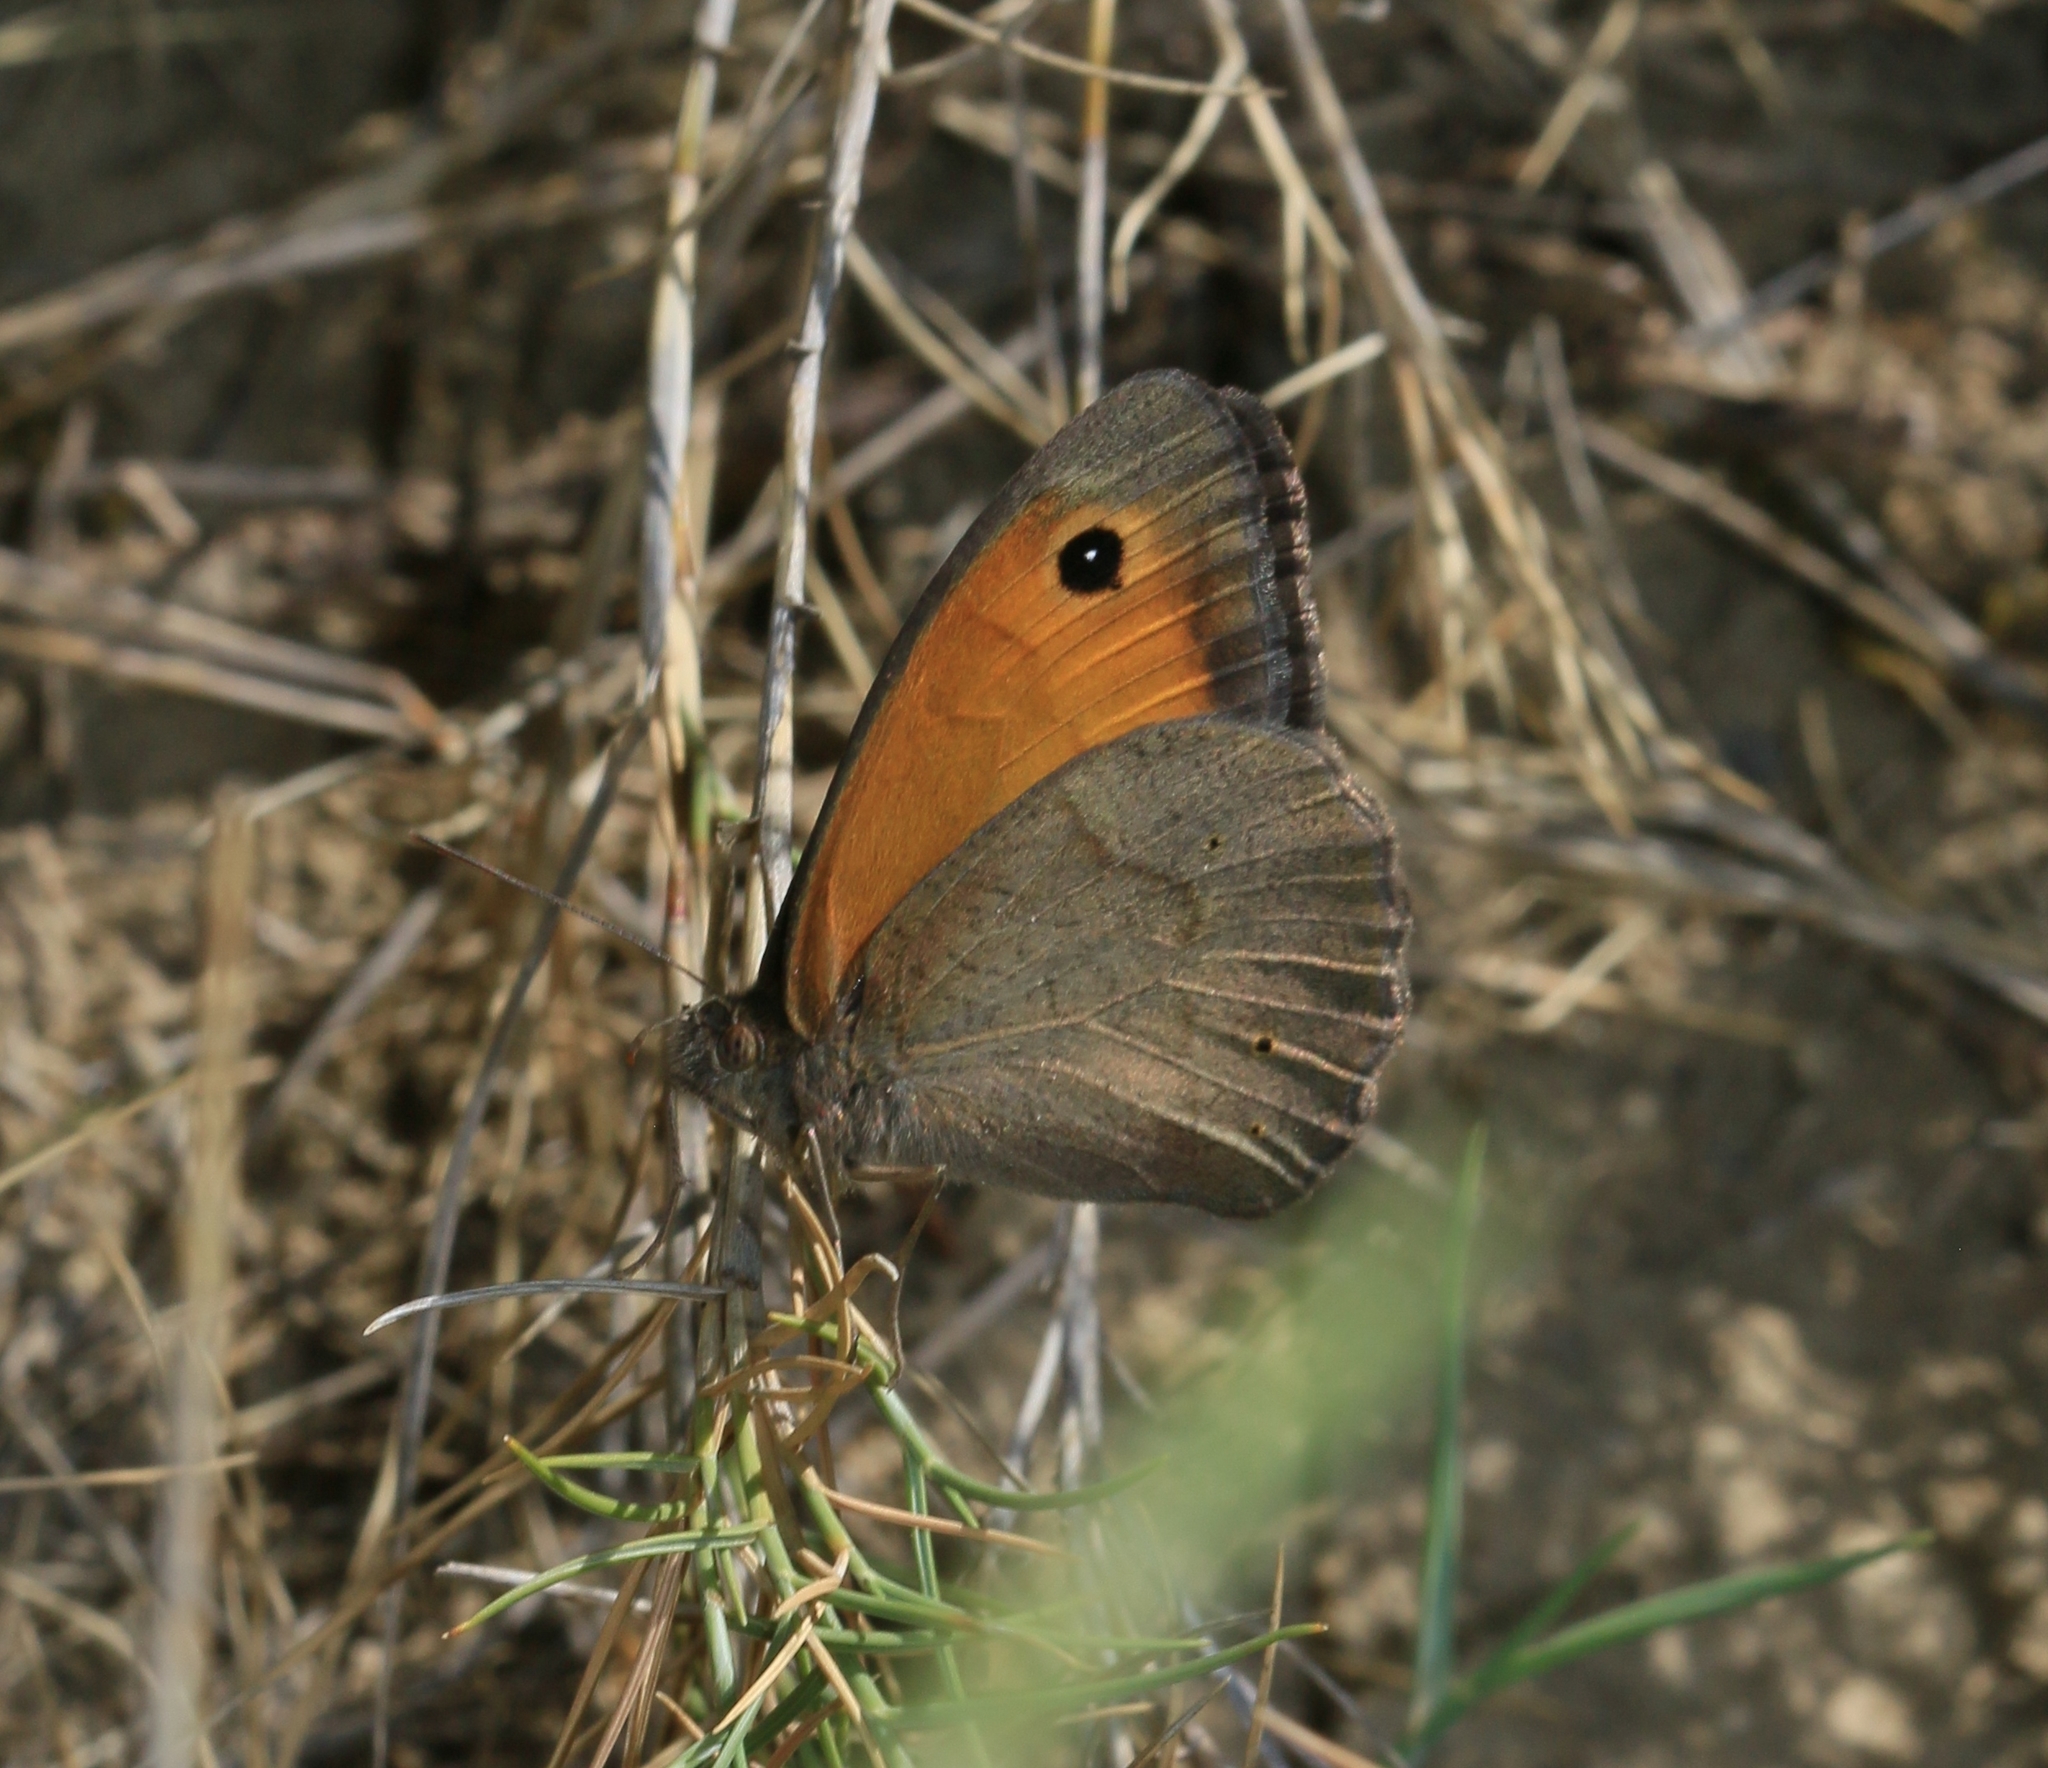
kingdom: Animalia
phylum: Arthropoda
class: Insecta
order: Lepidoptera
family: Nymphalidae
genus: Maniola
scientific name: Maniola jurtina
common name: Meadow brown
